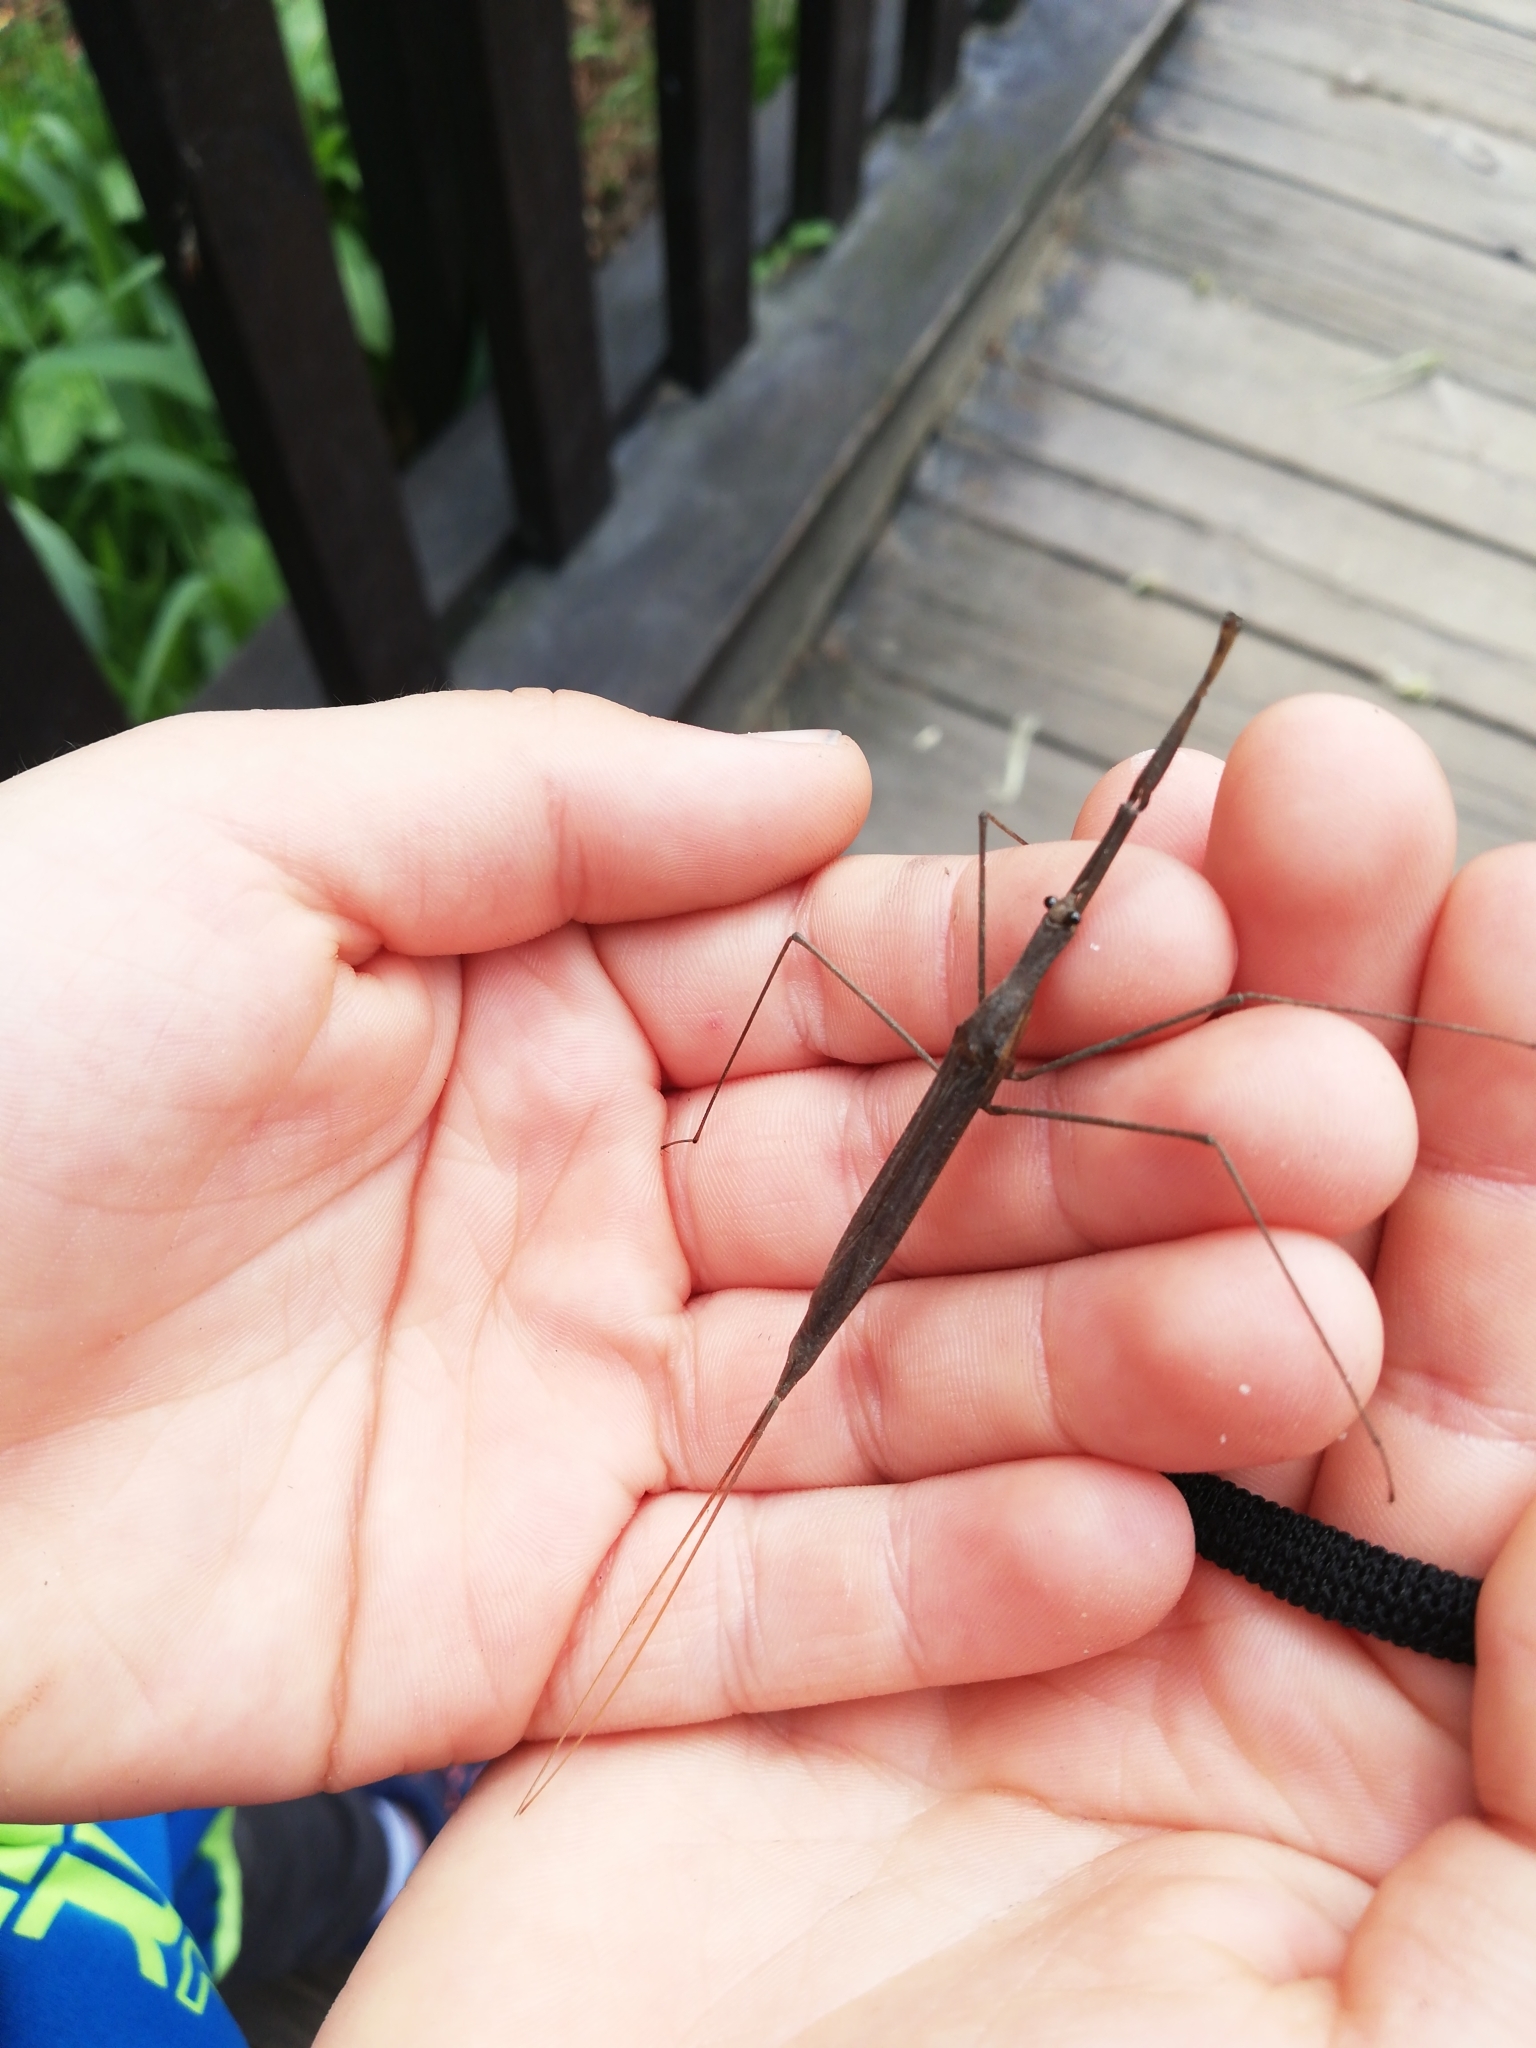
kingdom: Animalia
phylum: Arthropoda
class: Insecta
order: Hemiptera
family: Nepidae
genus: Ranatra
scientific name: Ranatra linearis
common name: Water stick insect
